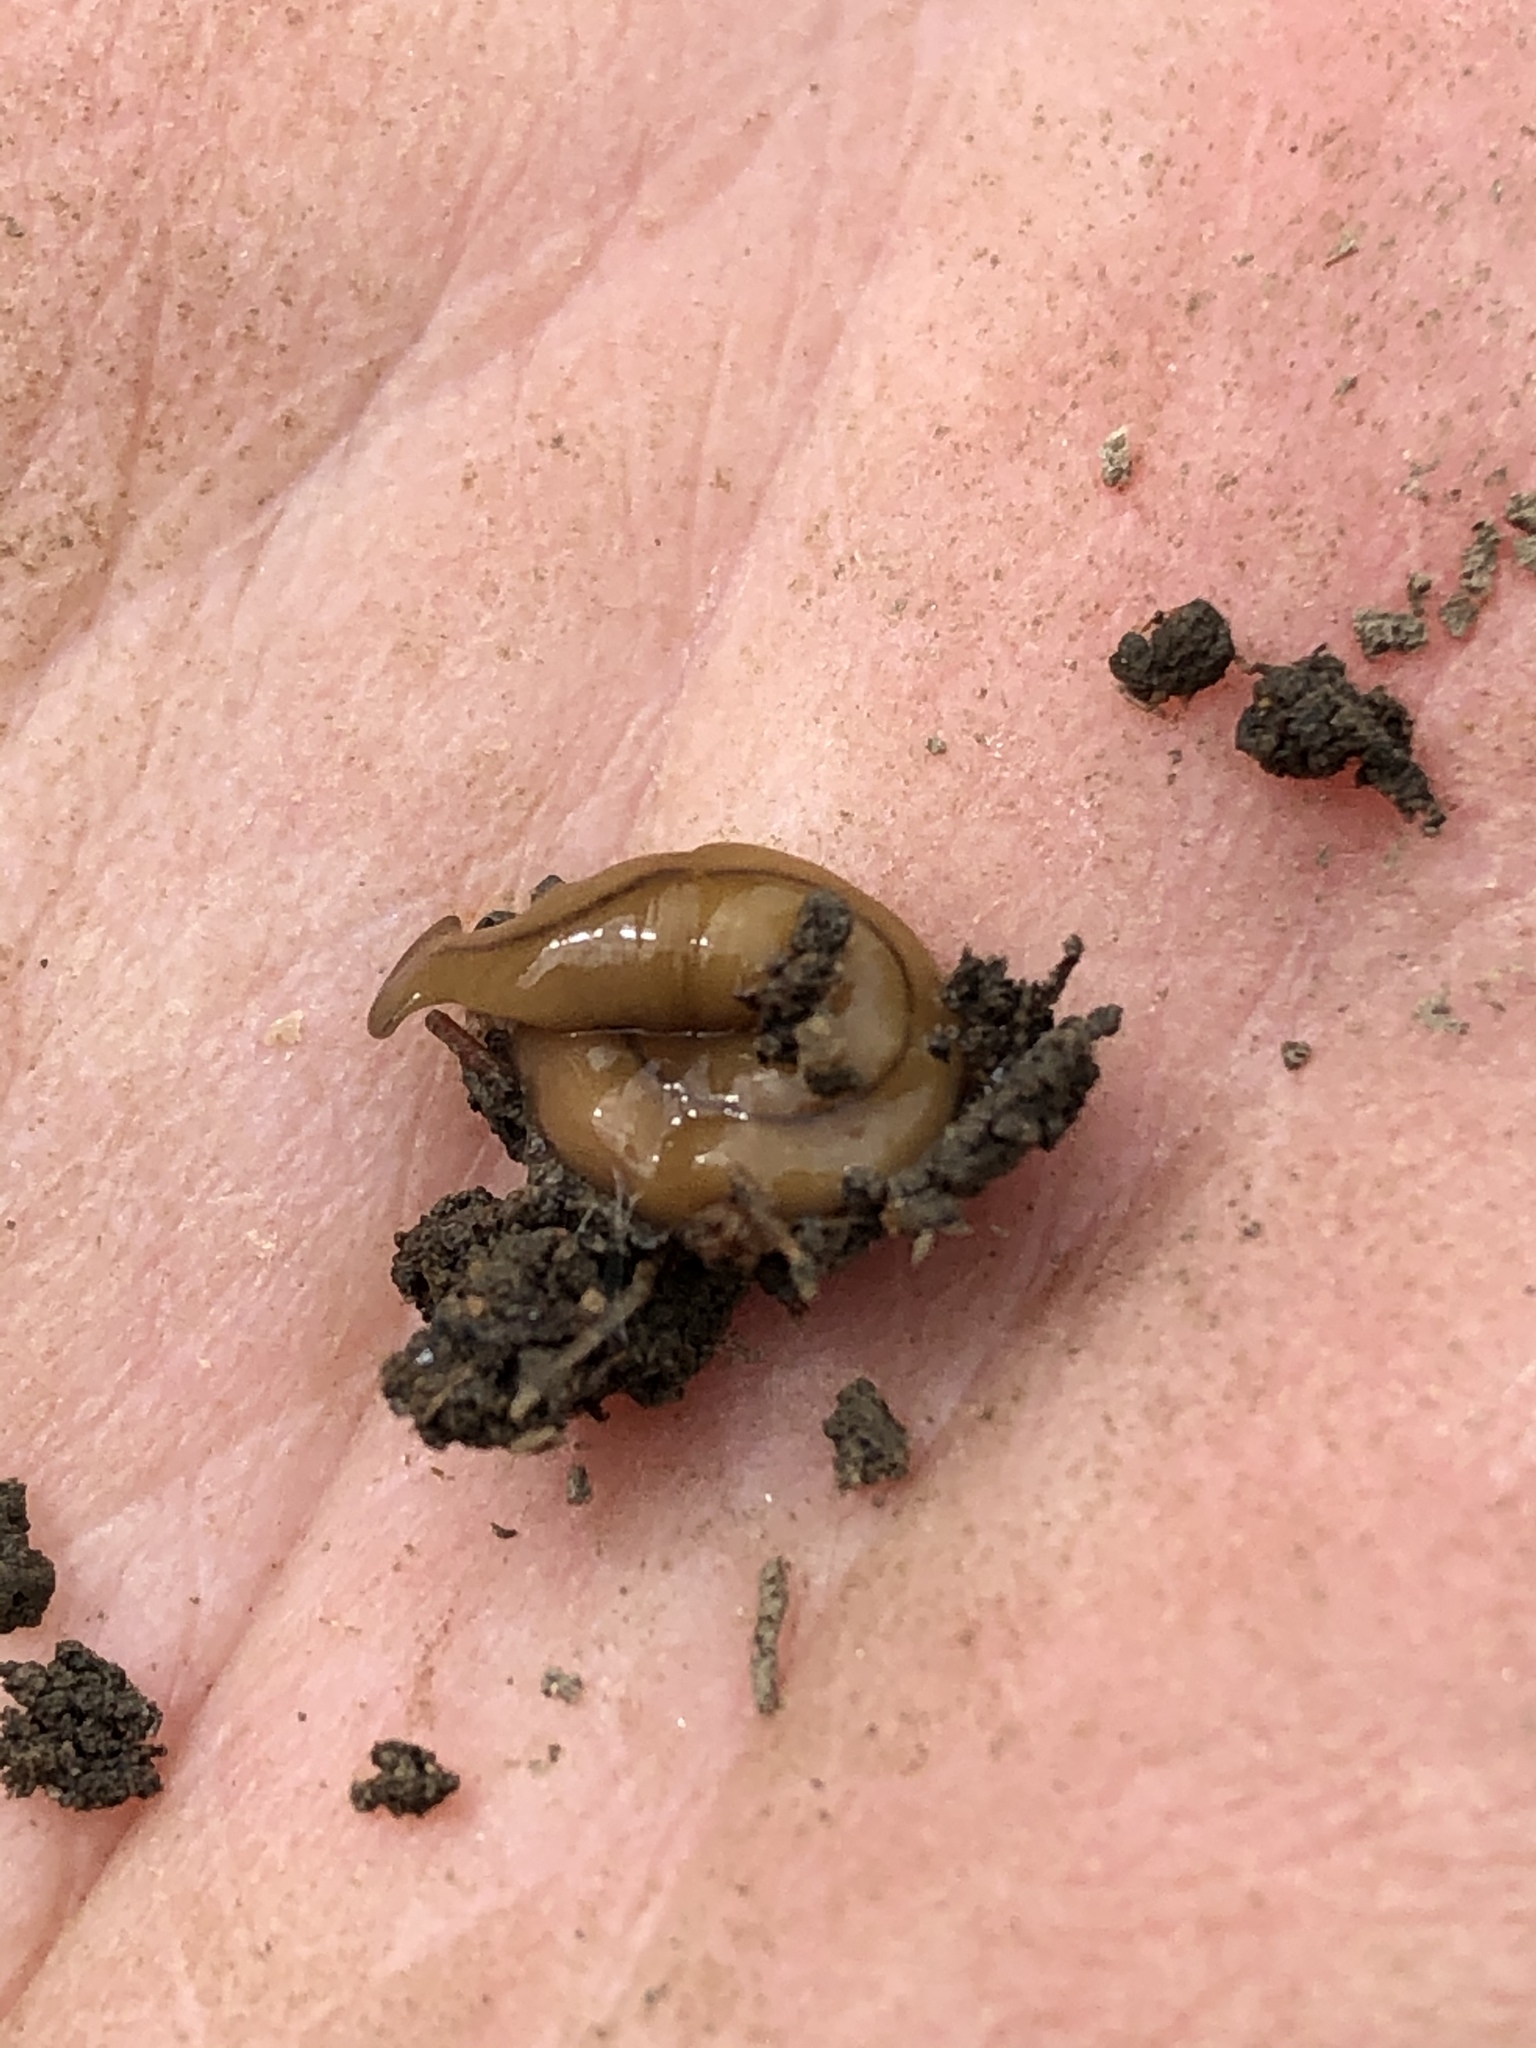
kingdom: Animalia
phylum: Platyhelminthes
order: Tricladida
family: Geoplanidae
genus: Bipalium
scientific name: Bipalium adventitium
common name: Land planarian
